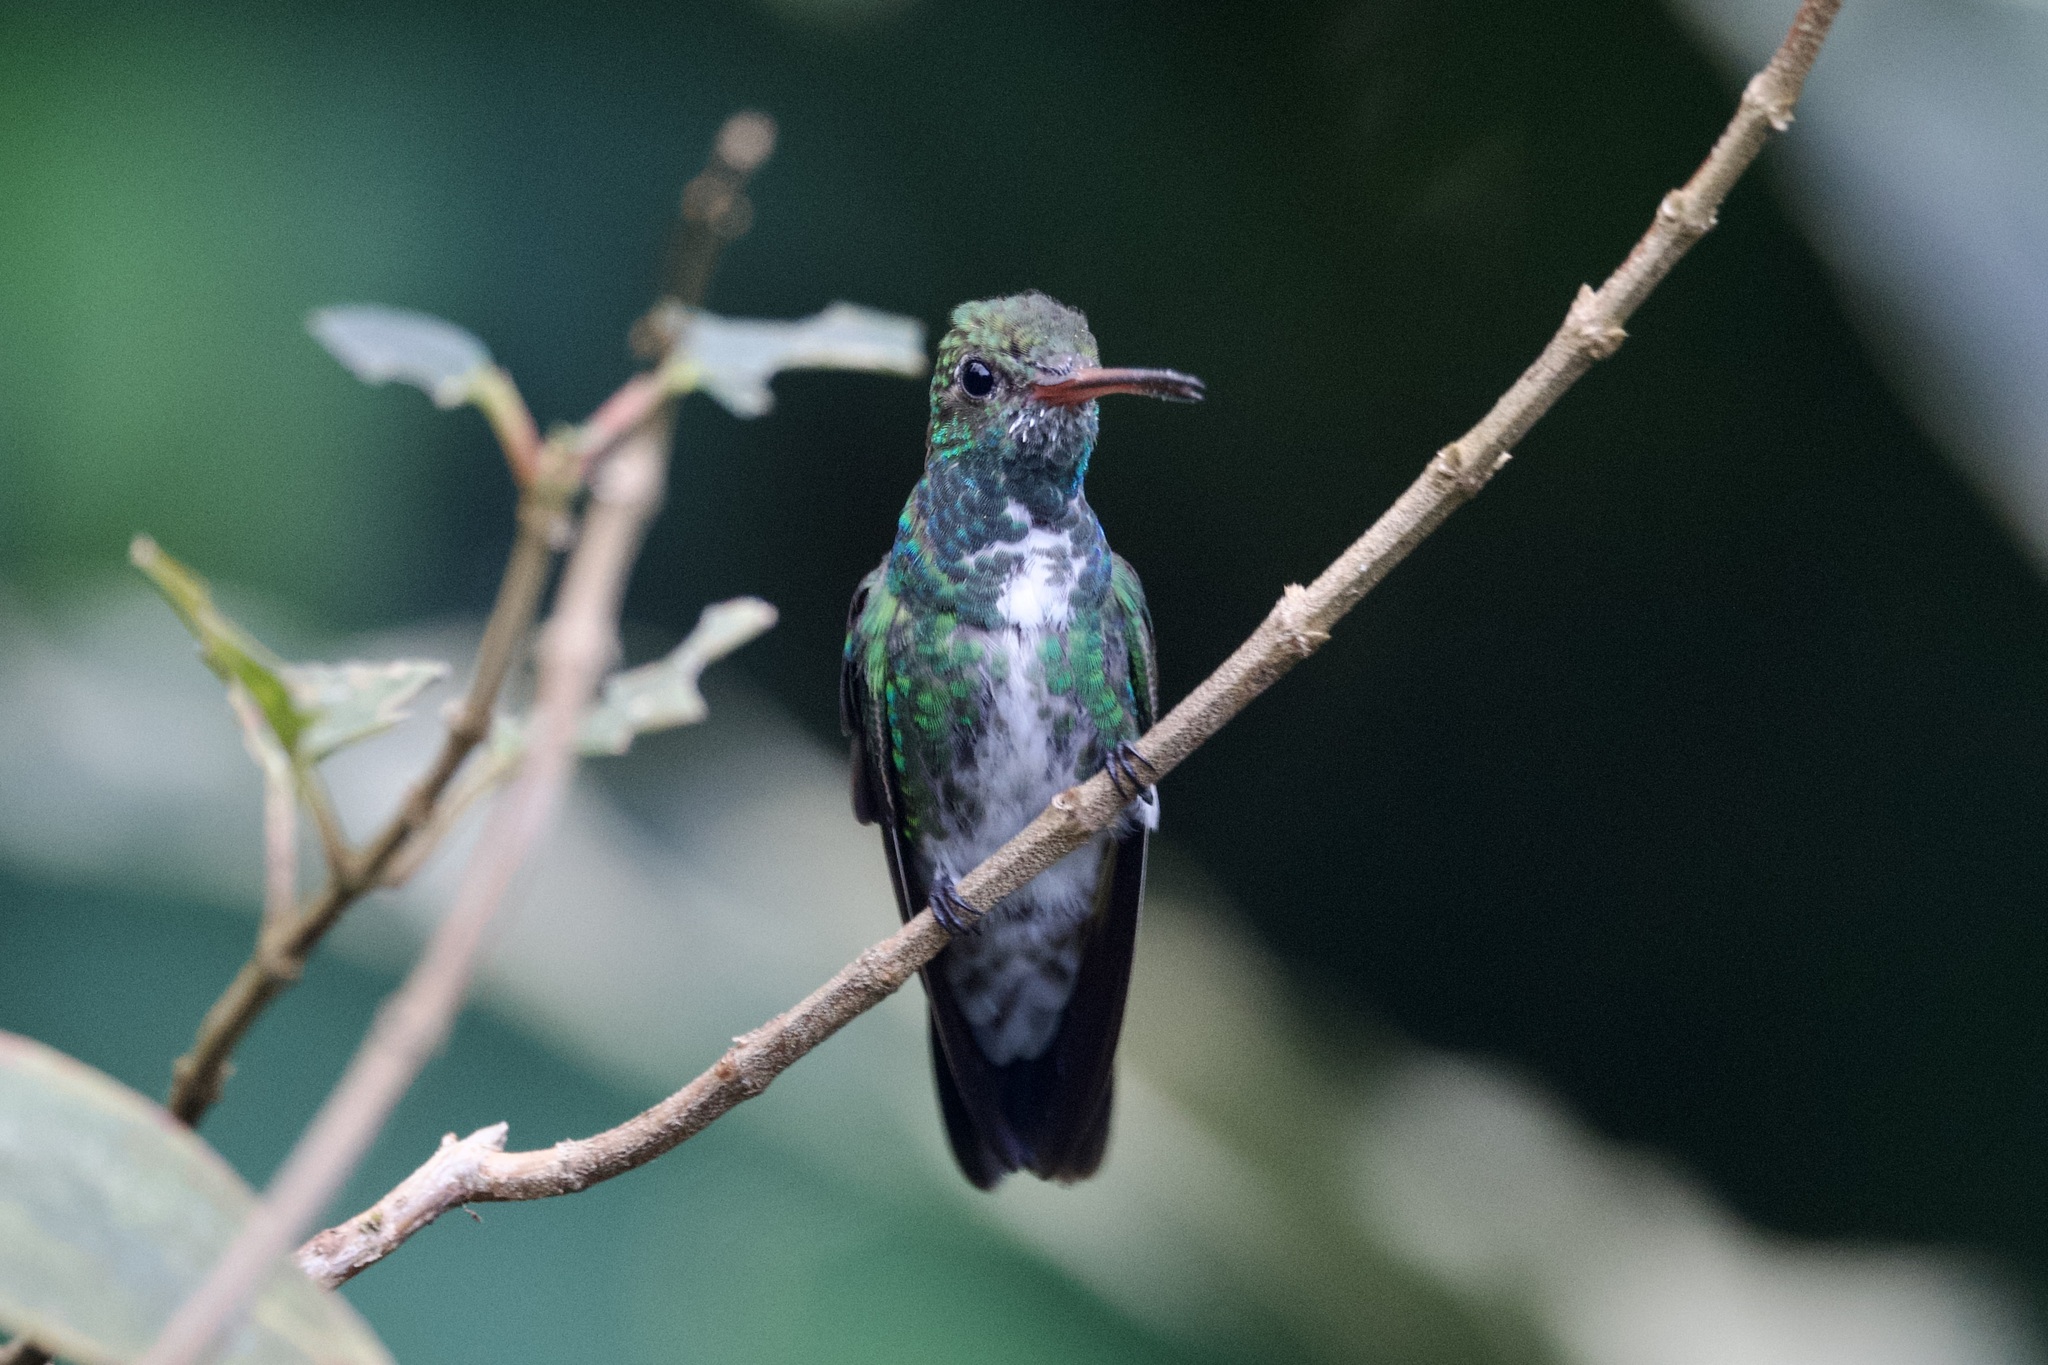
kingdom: Animalia
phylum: Chordata
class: Aves
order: Apodiformes
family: Trochilidae
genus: Chionomesa
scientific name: Chionomesa fimbriata
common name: Glittering-throated emerald
